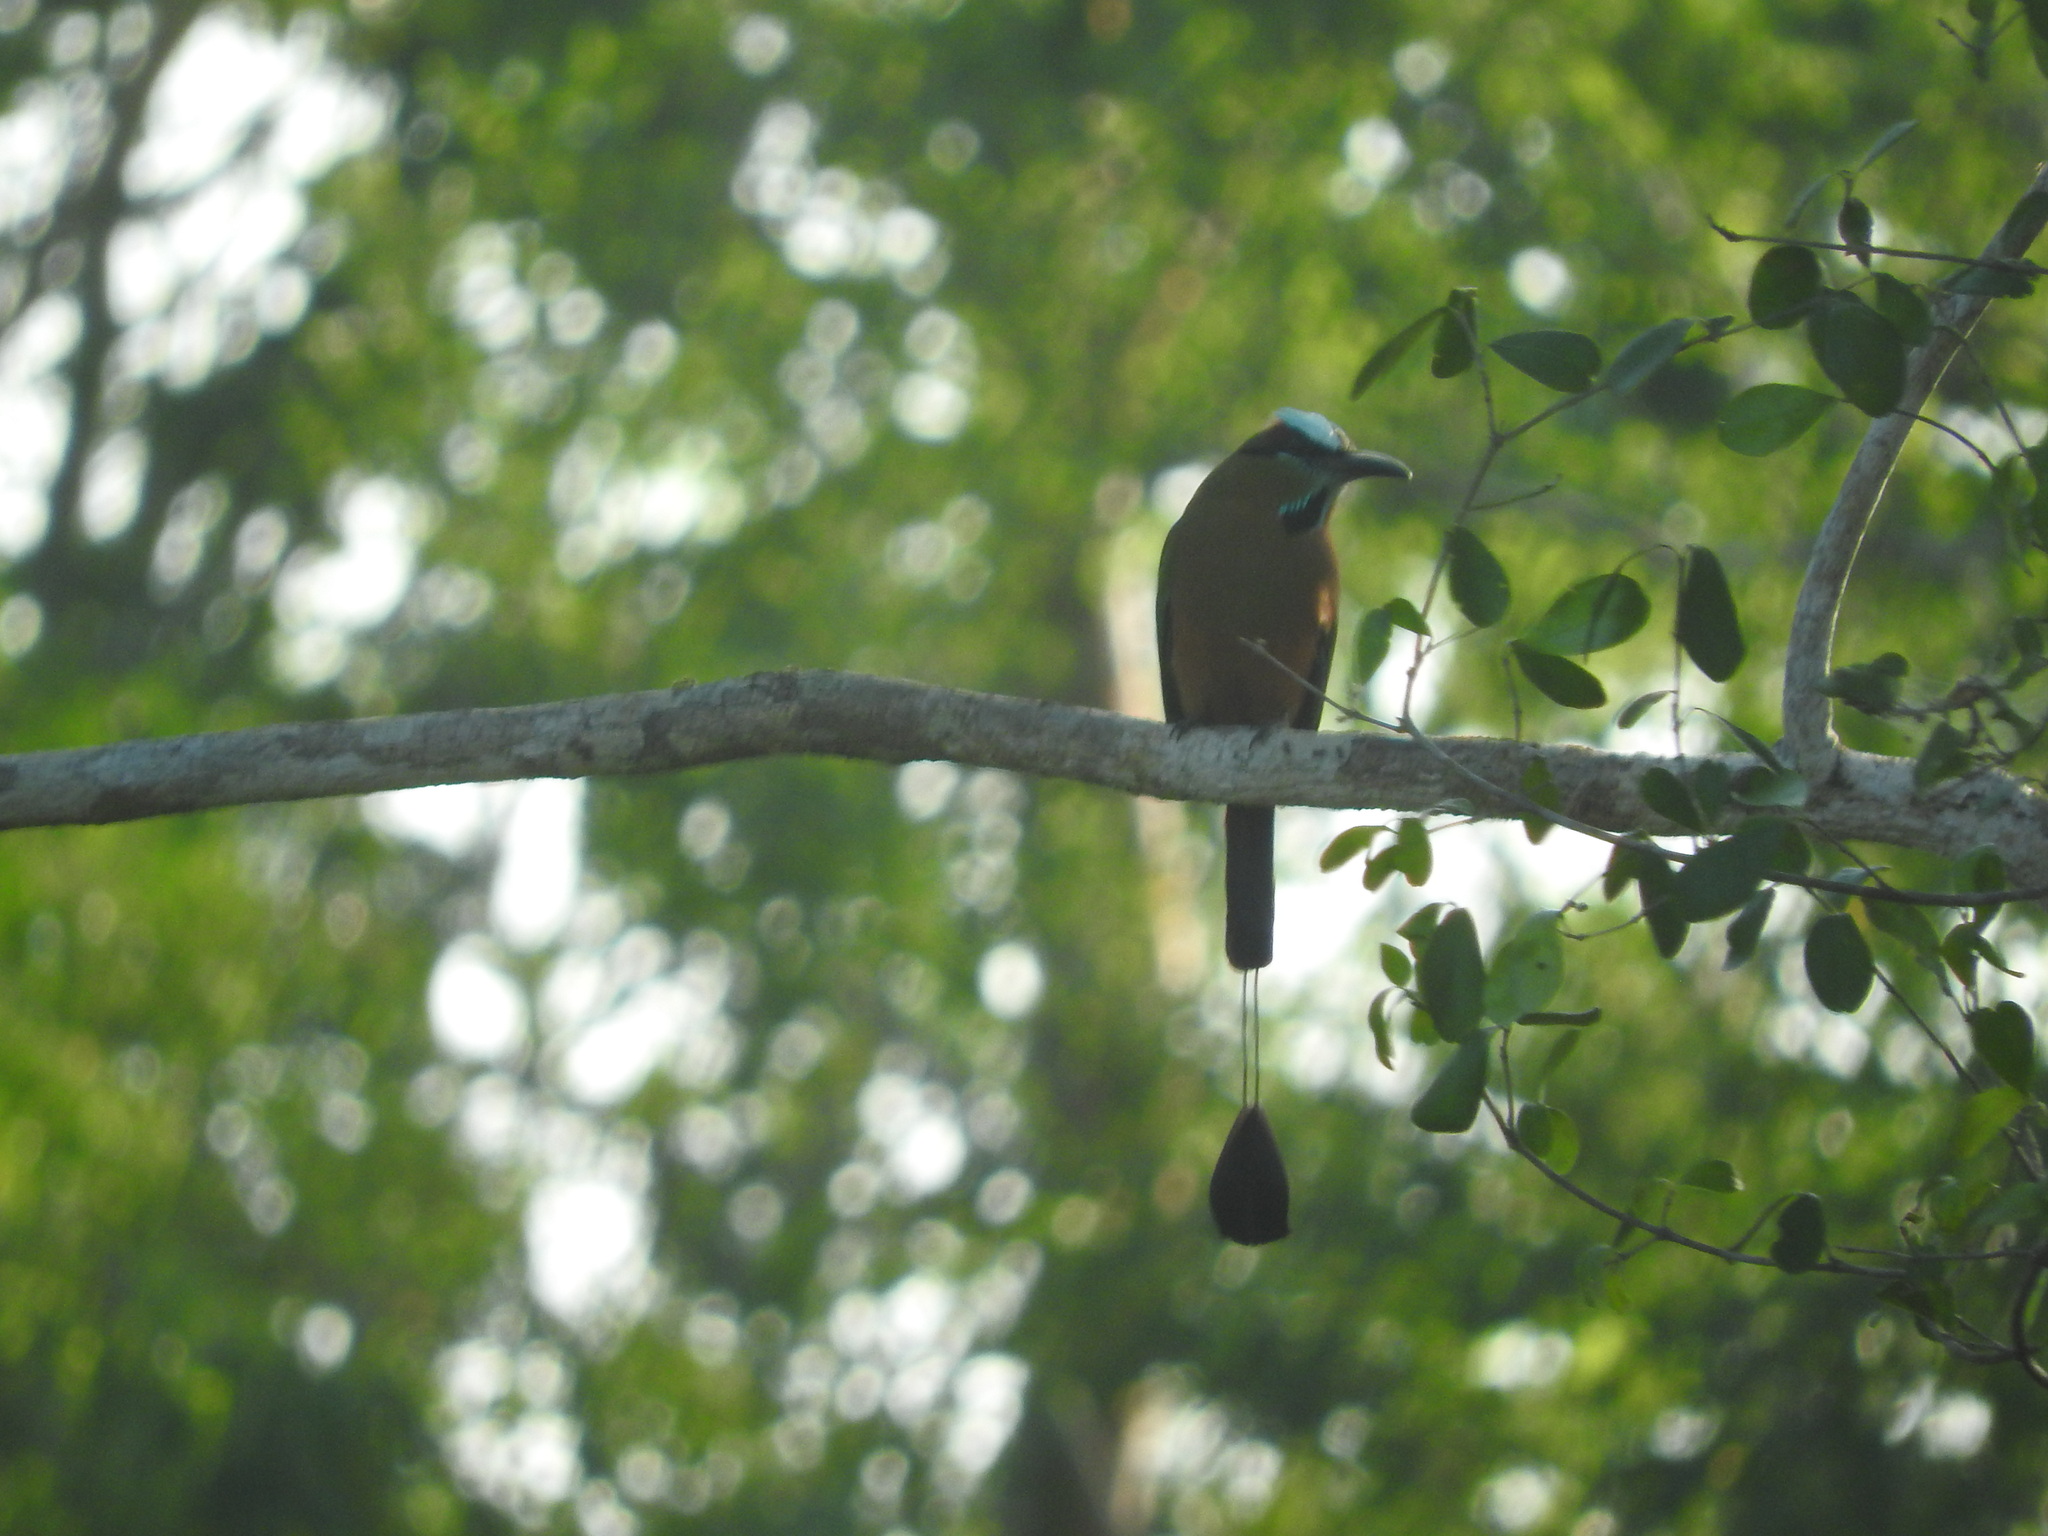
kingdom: Animalia
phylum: Chordata
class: Aves
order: Coraciiformes
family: Momotidae
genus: Eumomota
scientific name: Eumomota superciliosa
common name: Turquoise-browed motmot
